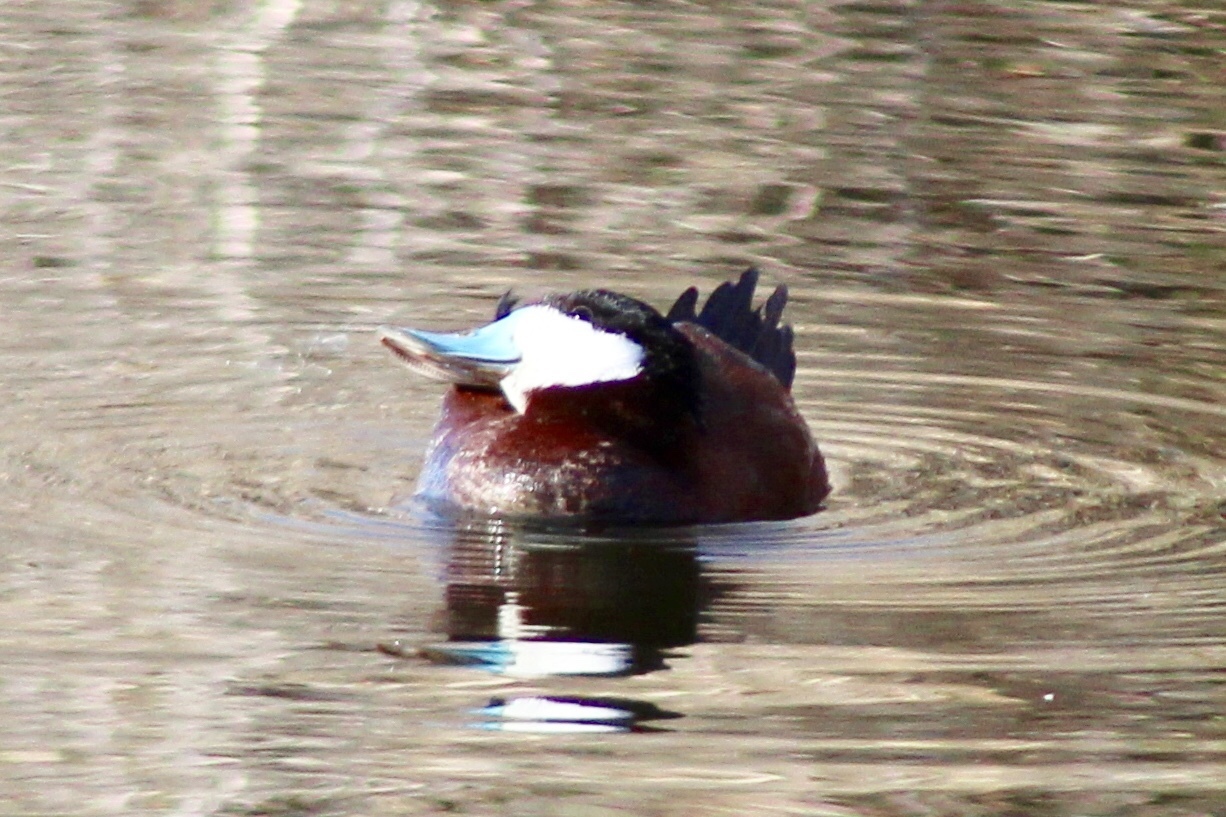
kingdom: Animalia
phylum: Chordata
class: Aves
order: Anseriformes
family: Anatidae
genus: Oxyura
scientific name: Oxyura jamaicensis
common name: Ruddy duck
